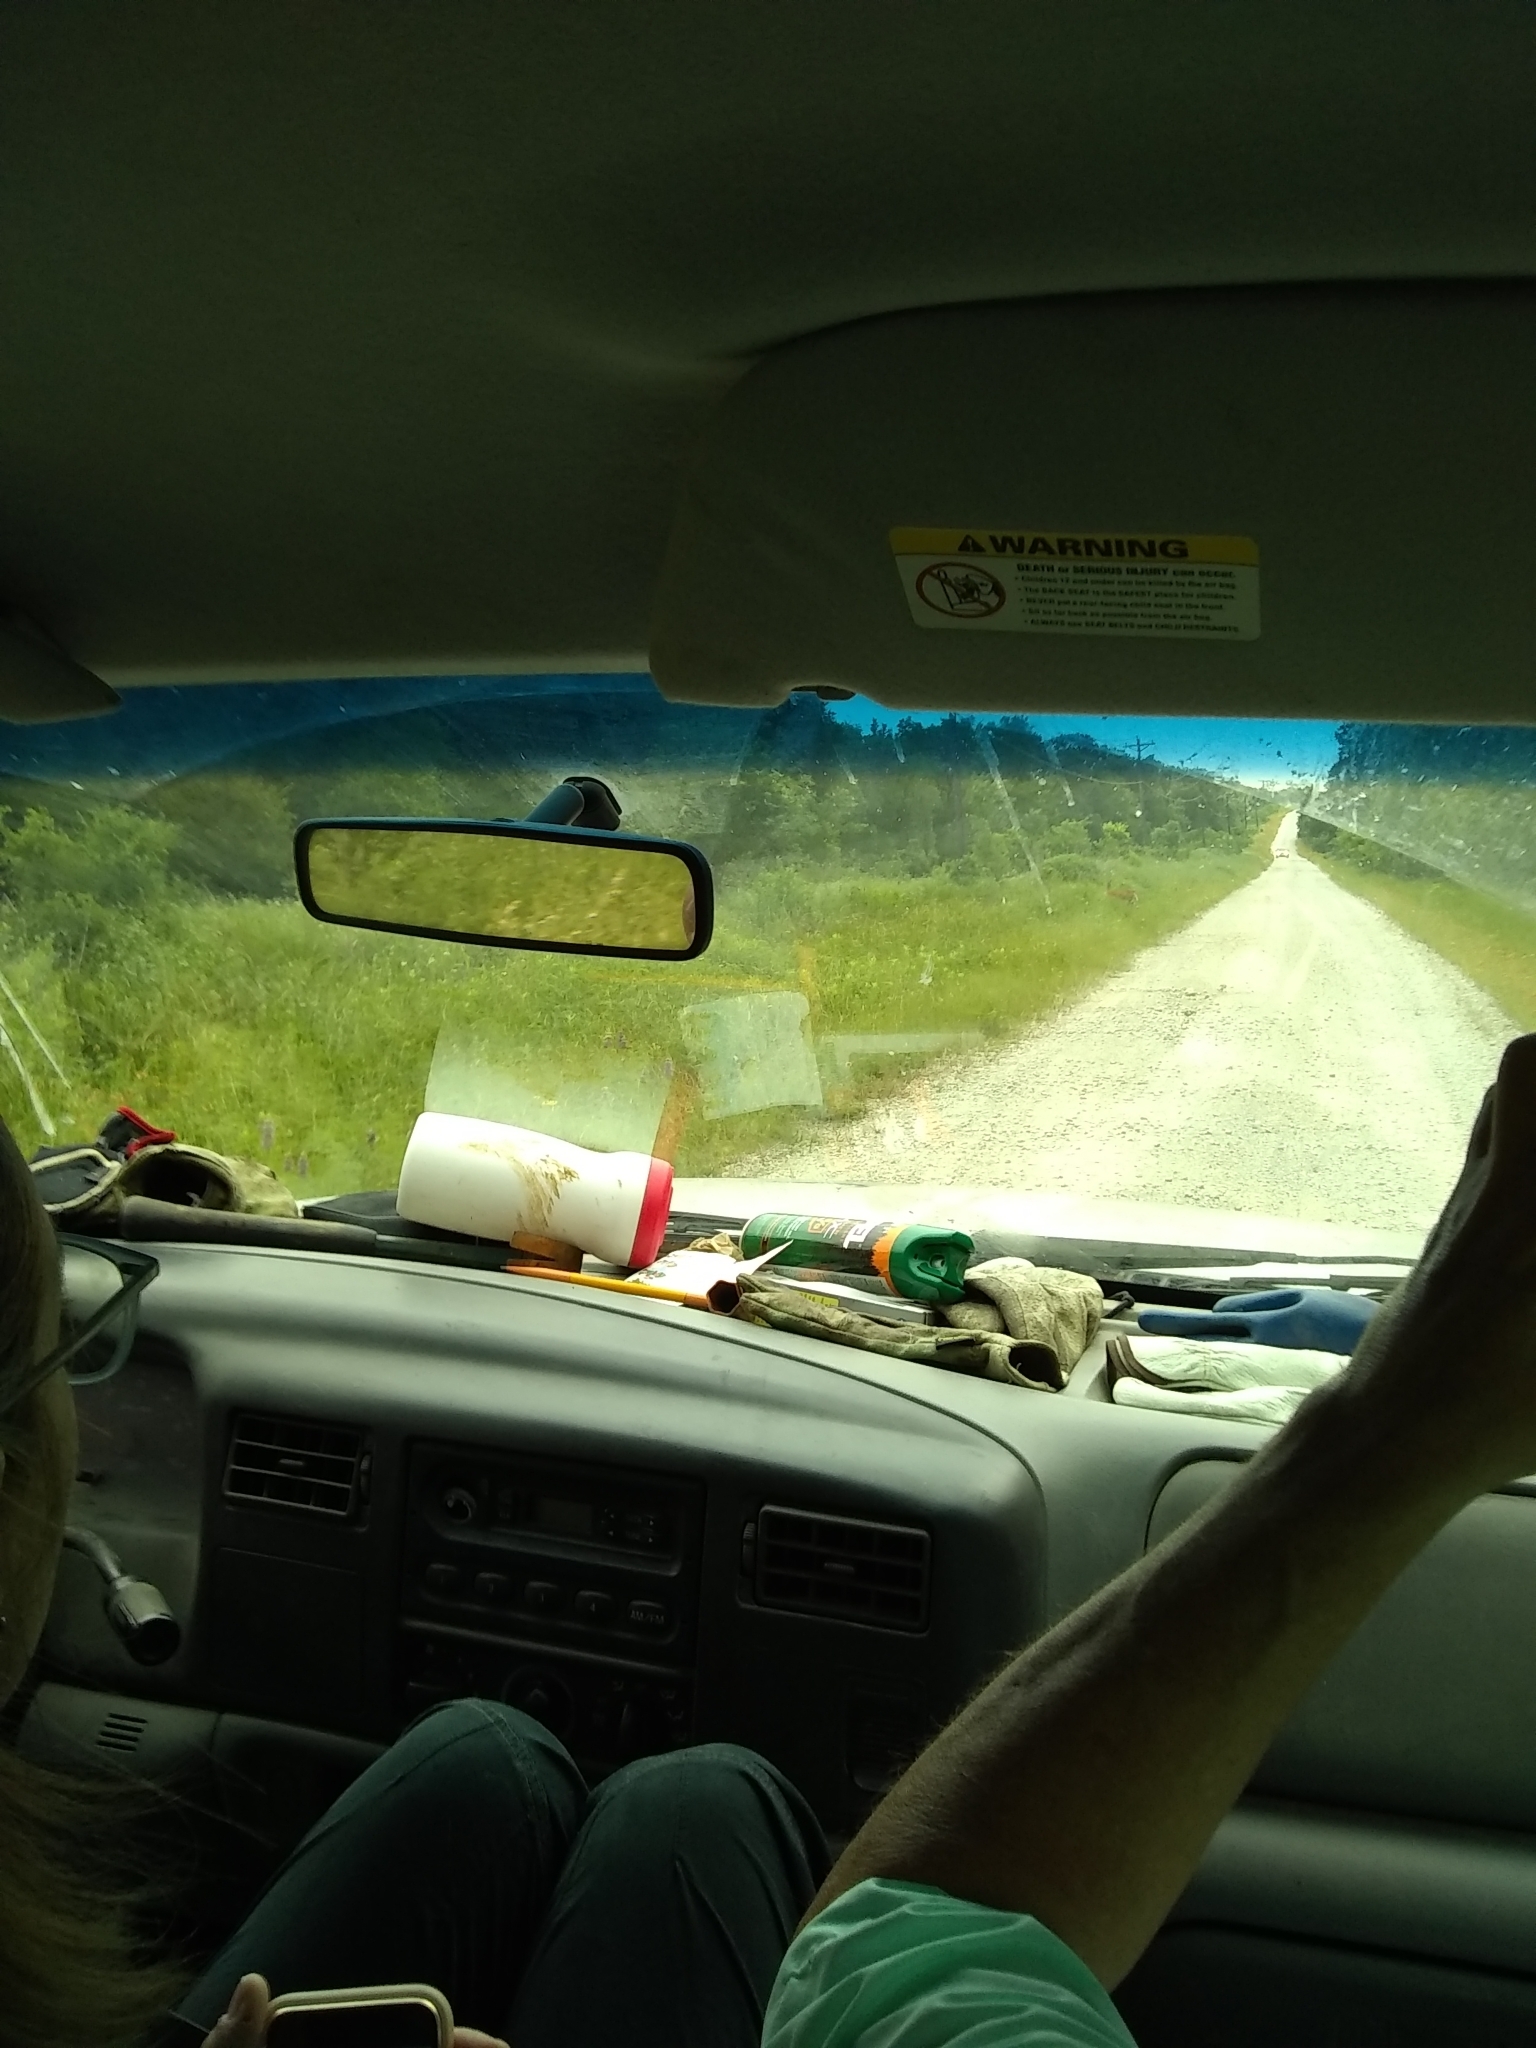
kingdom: Animalia
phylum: Chordata
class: Mammalia
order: Artiodactyla
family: Cervidae
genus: Odocoileus
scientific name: Odocoileus virginianus
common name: White-tailed deer
